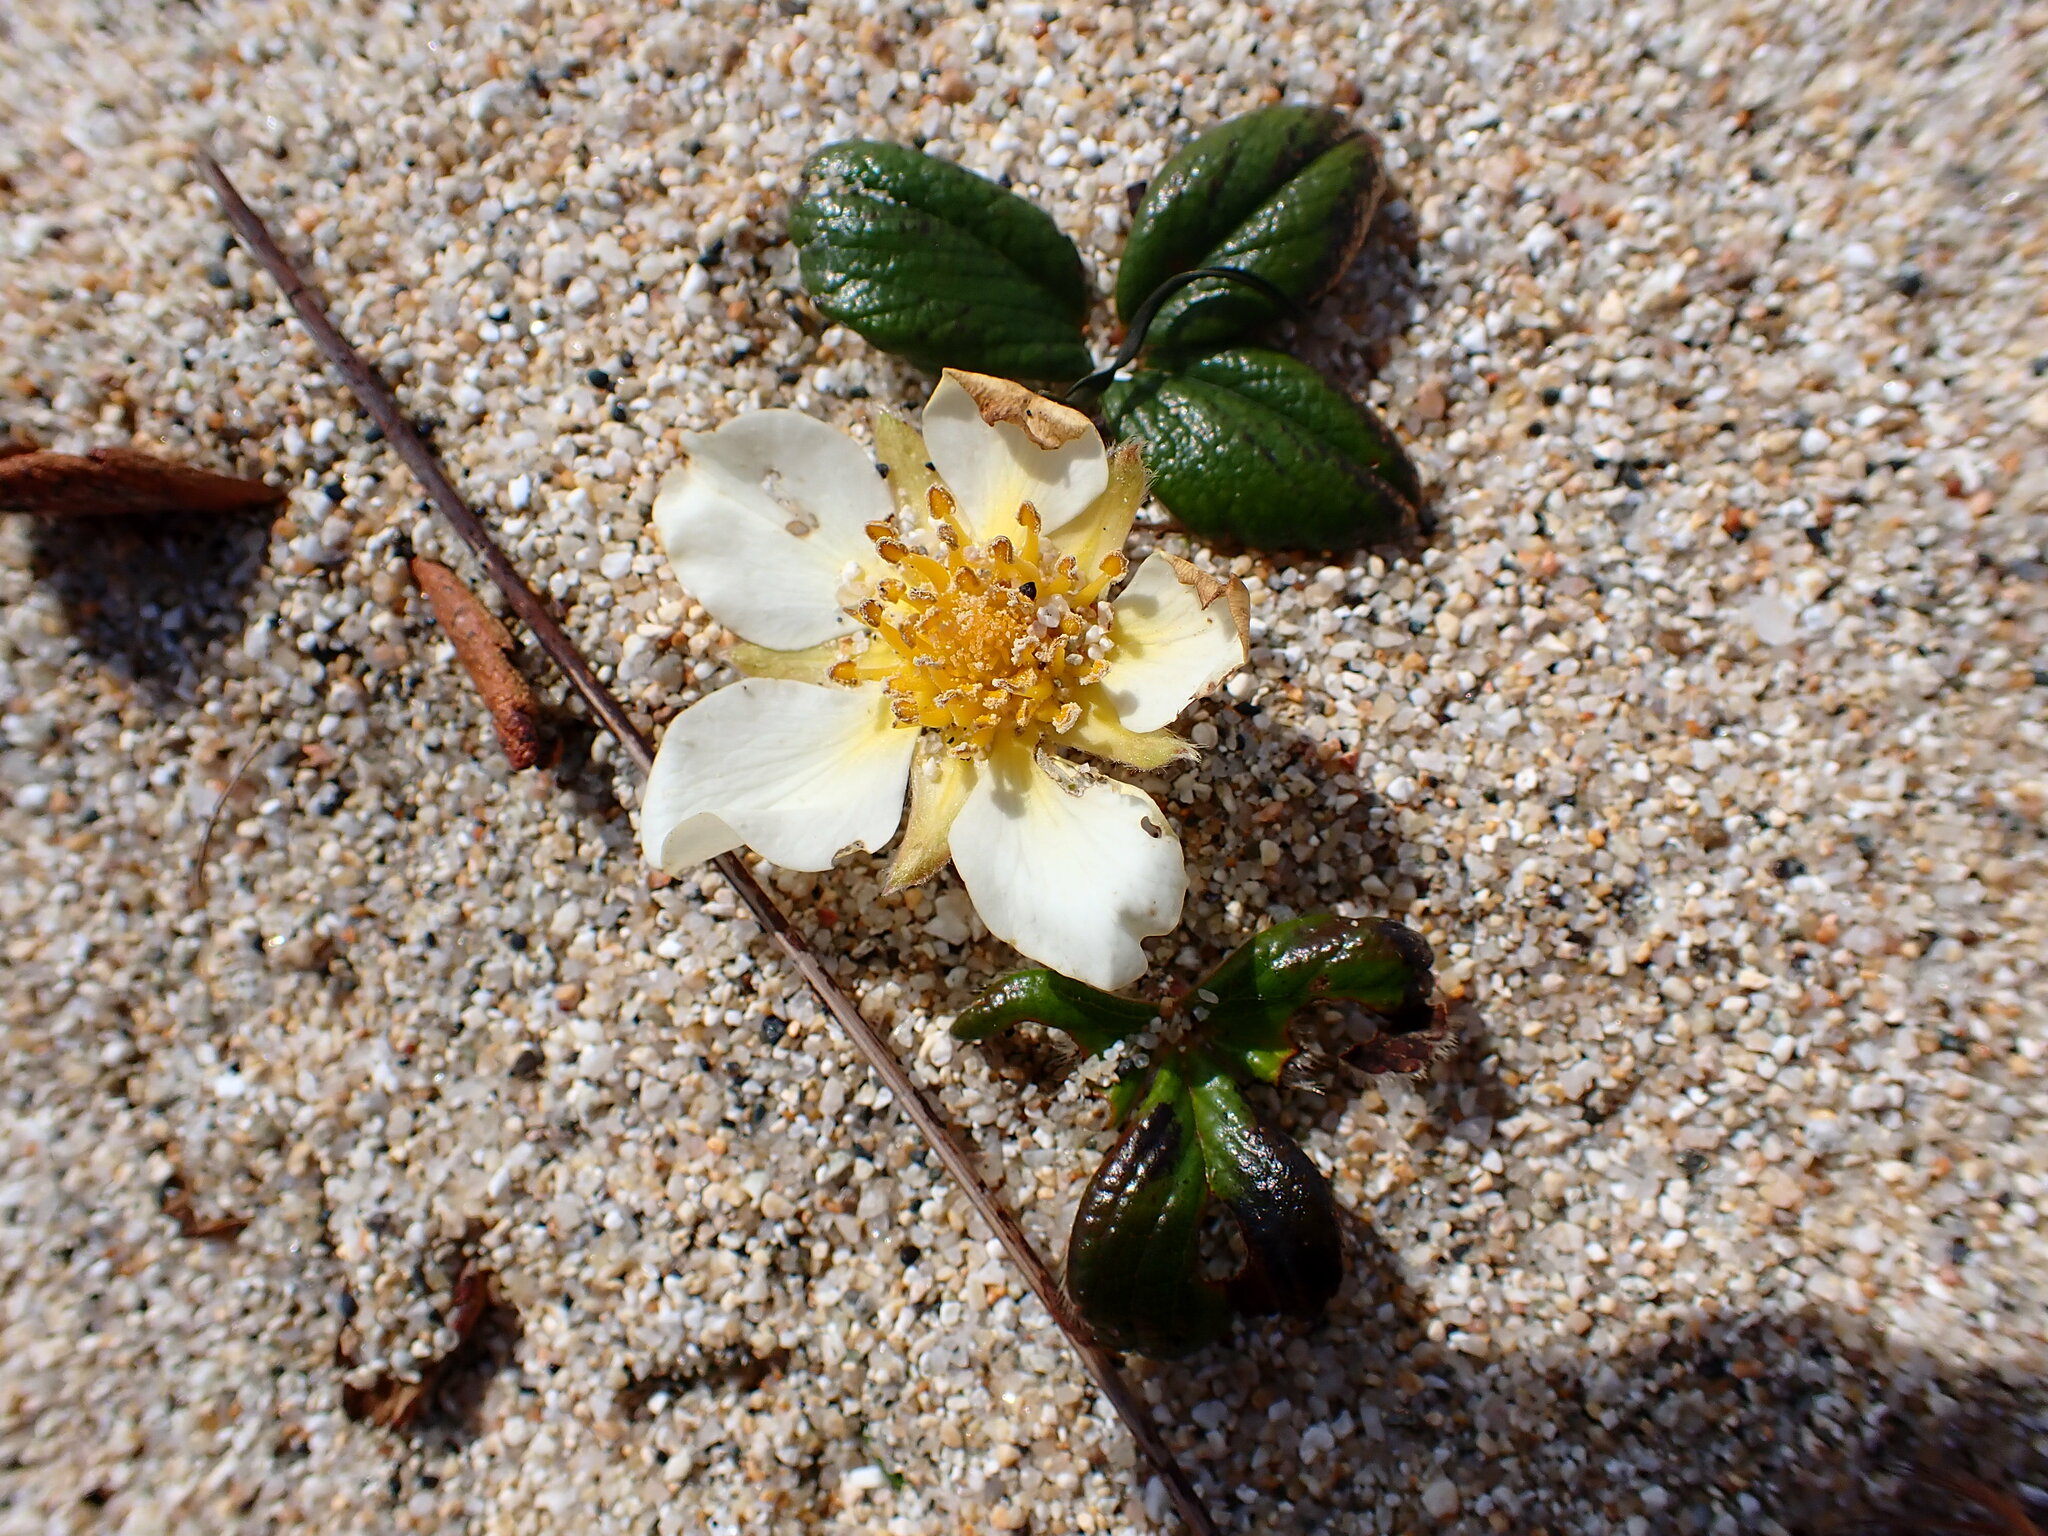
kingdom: Plantae
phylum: Tracheophyta
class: Magnoliopsida
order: Rosales
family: Rosaceae
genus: Fragaria
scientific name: Fragaria chiloensis
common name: Beach strawberry
